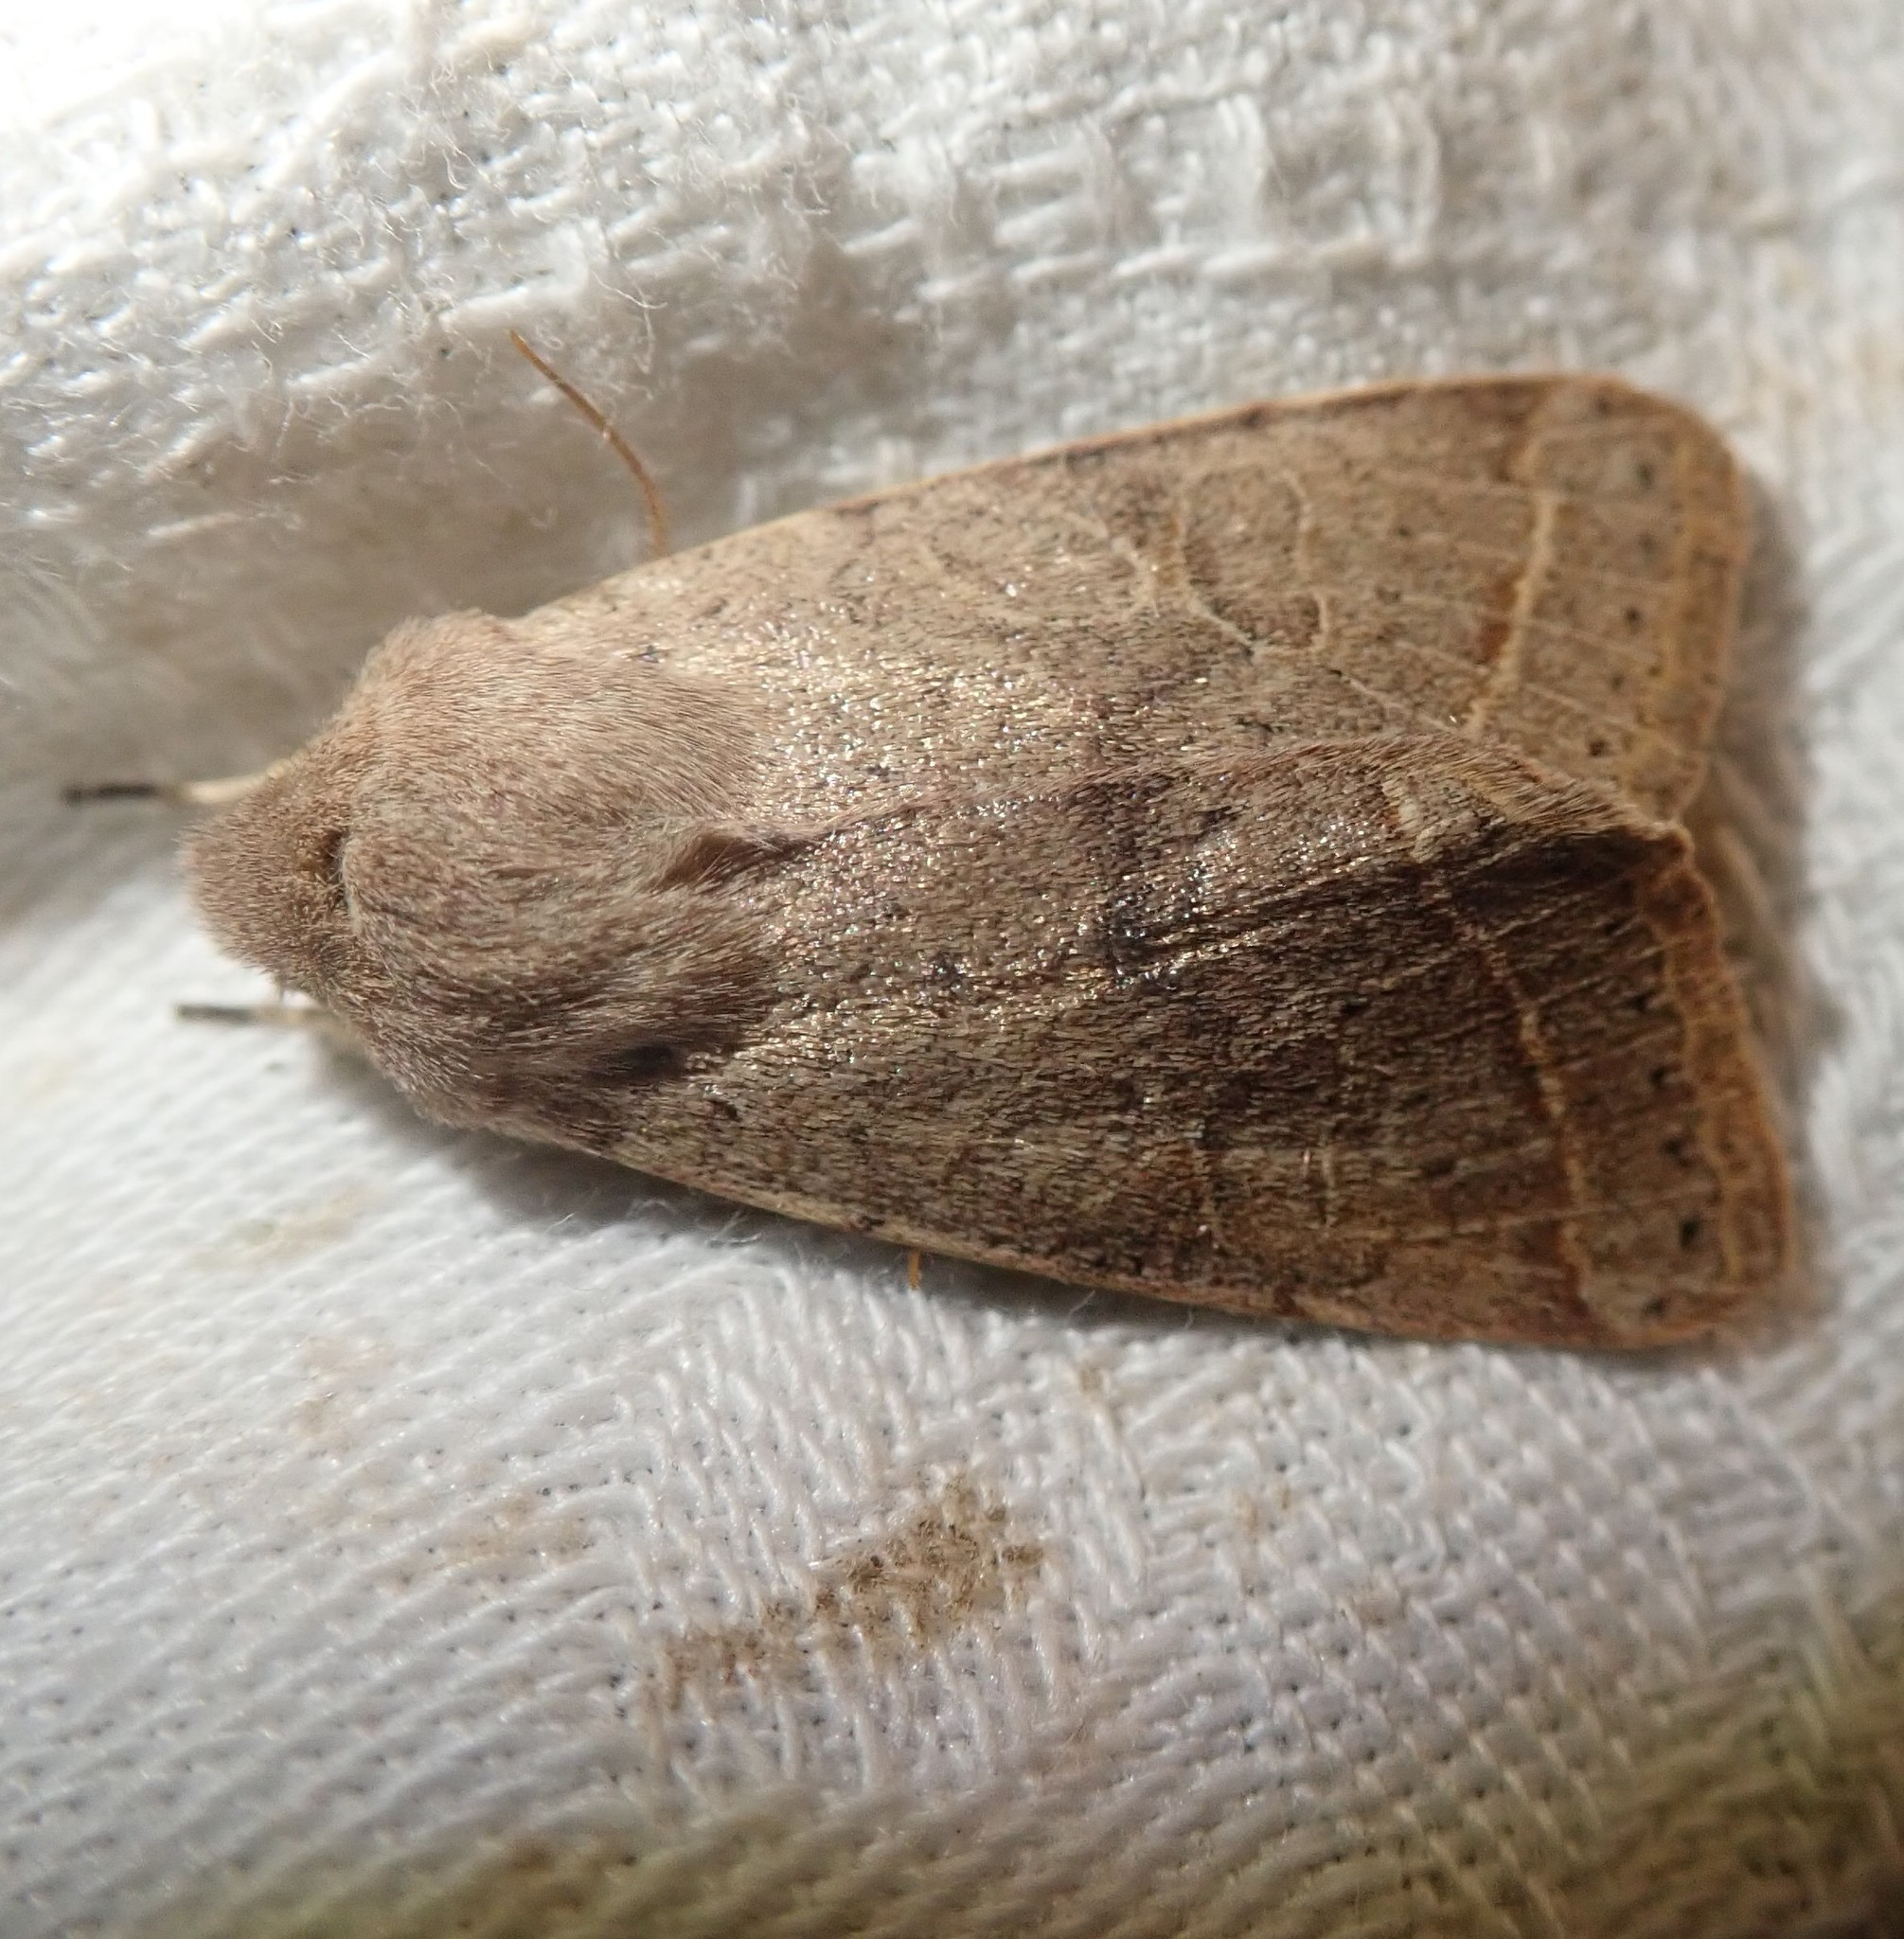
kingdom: Animalia
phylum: Arthropoda
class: Insecta
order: Lepidoptera
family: Noctuidae
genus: Orthosia
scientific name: Orthosia cerasi
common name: Common quaker
